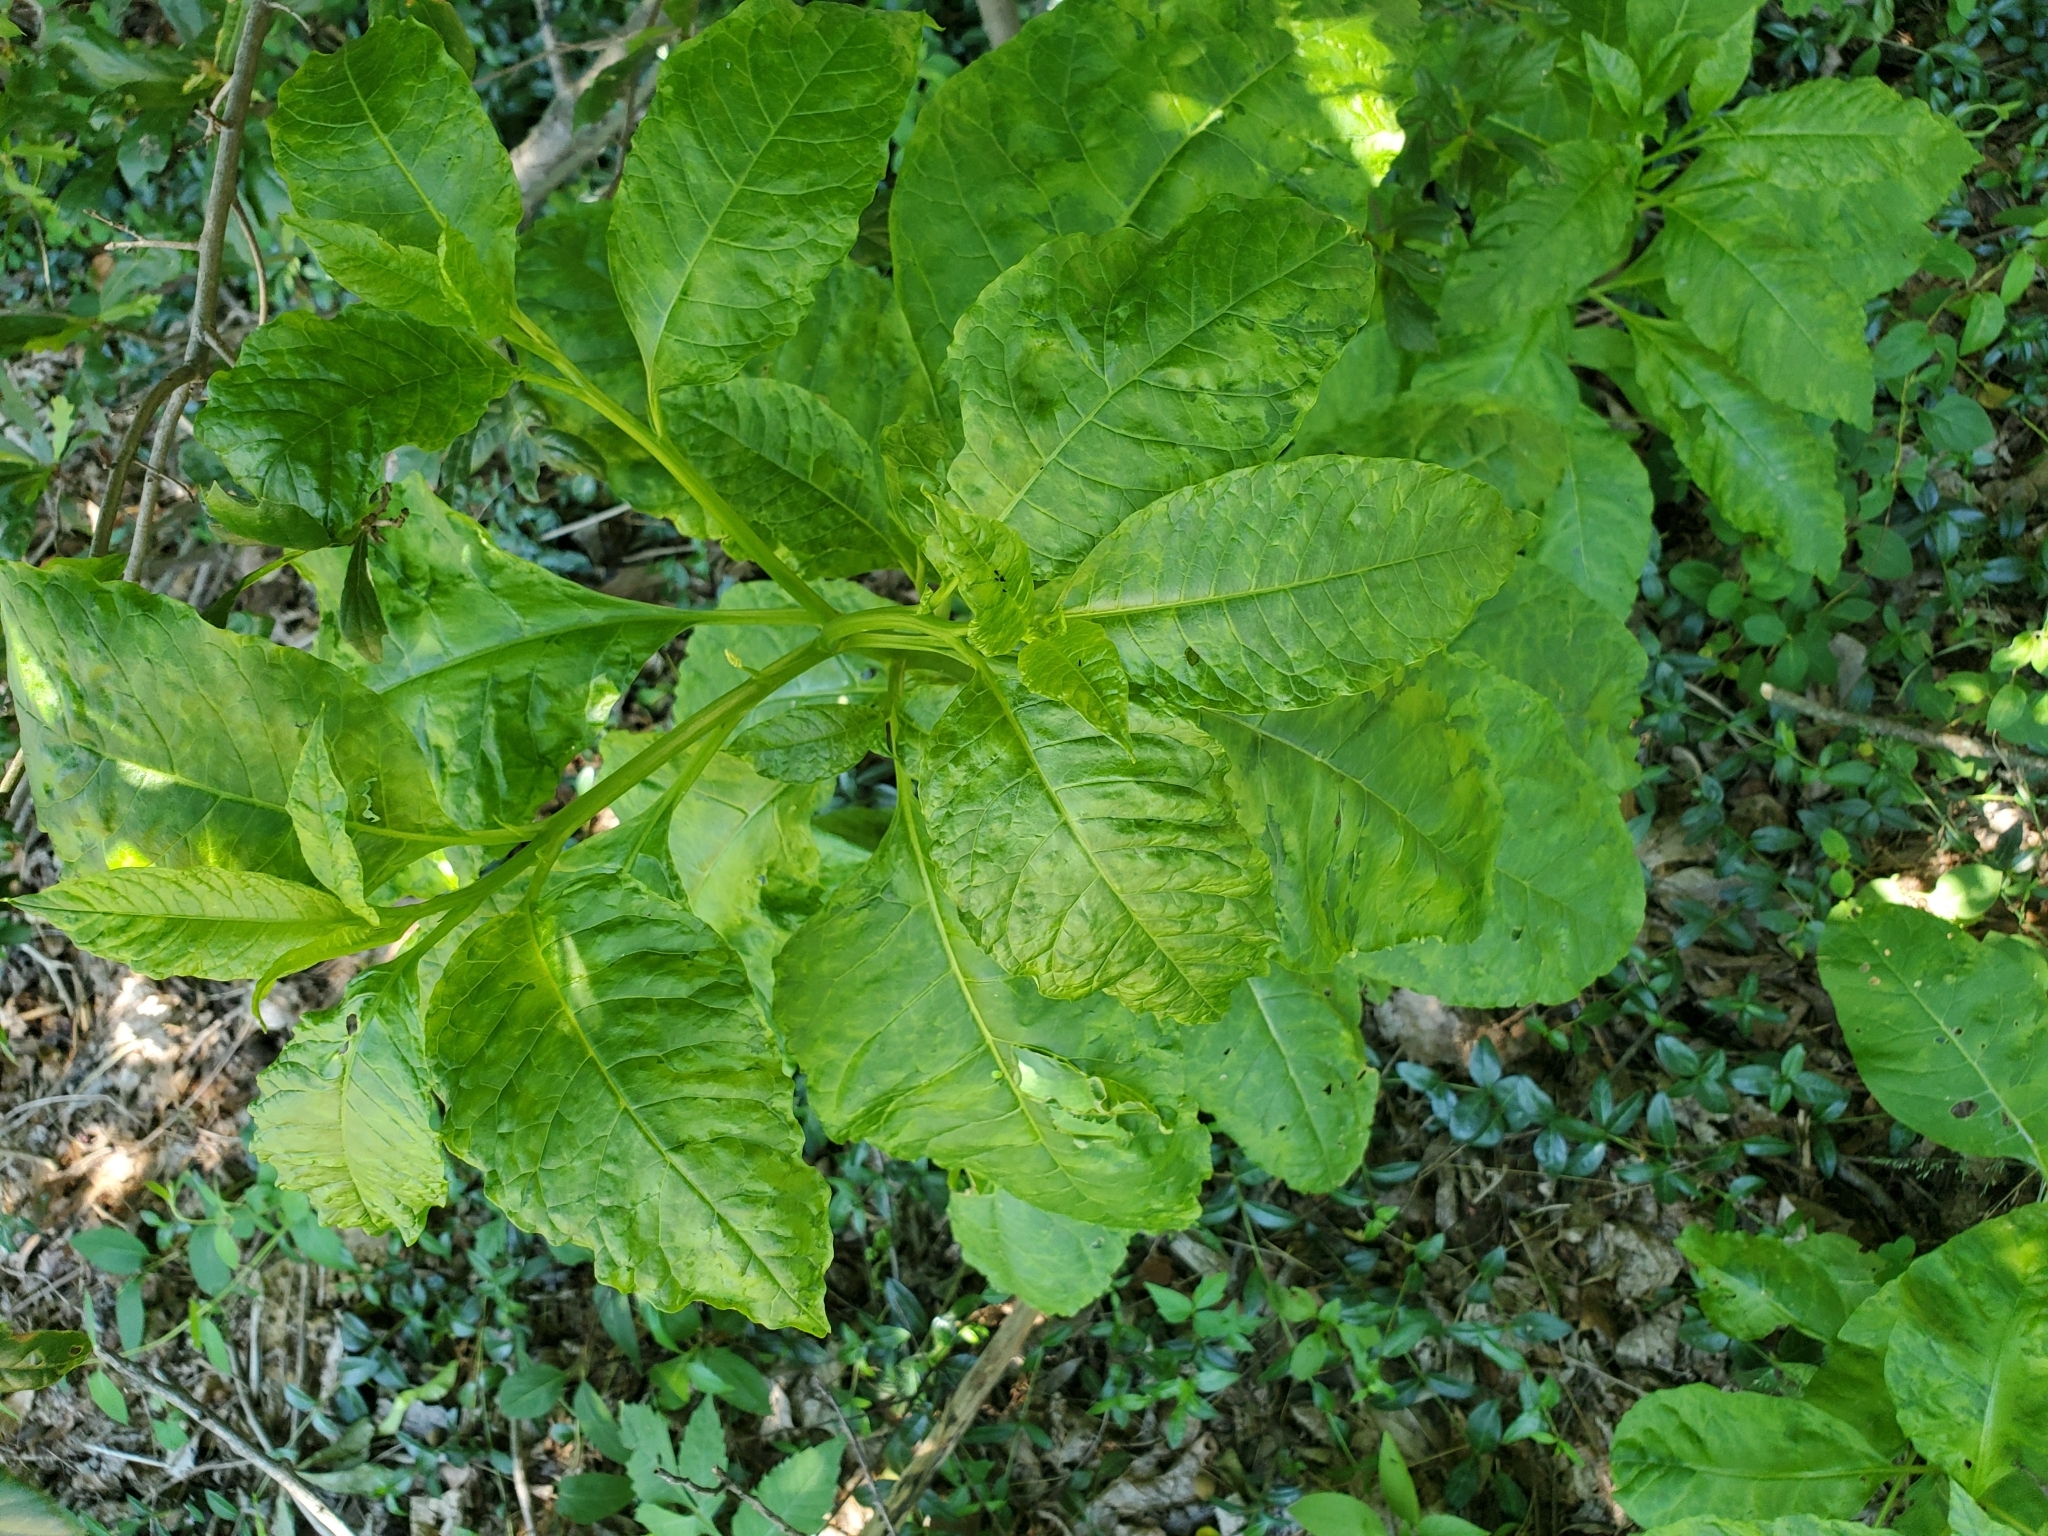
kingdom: Plantae
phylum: Tracheophyta
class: Magnoliopsida
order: Caryophyllales
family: Phytolaccaceae
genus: Phytolacca
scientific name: Phytolacca americana
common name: American pokeweed
